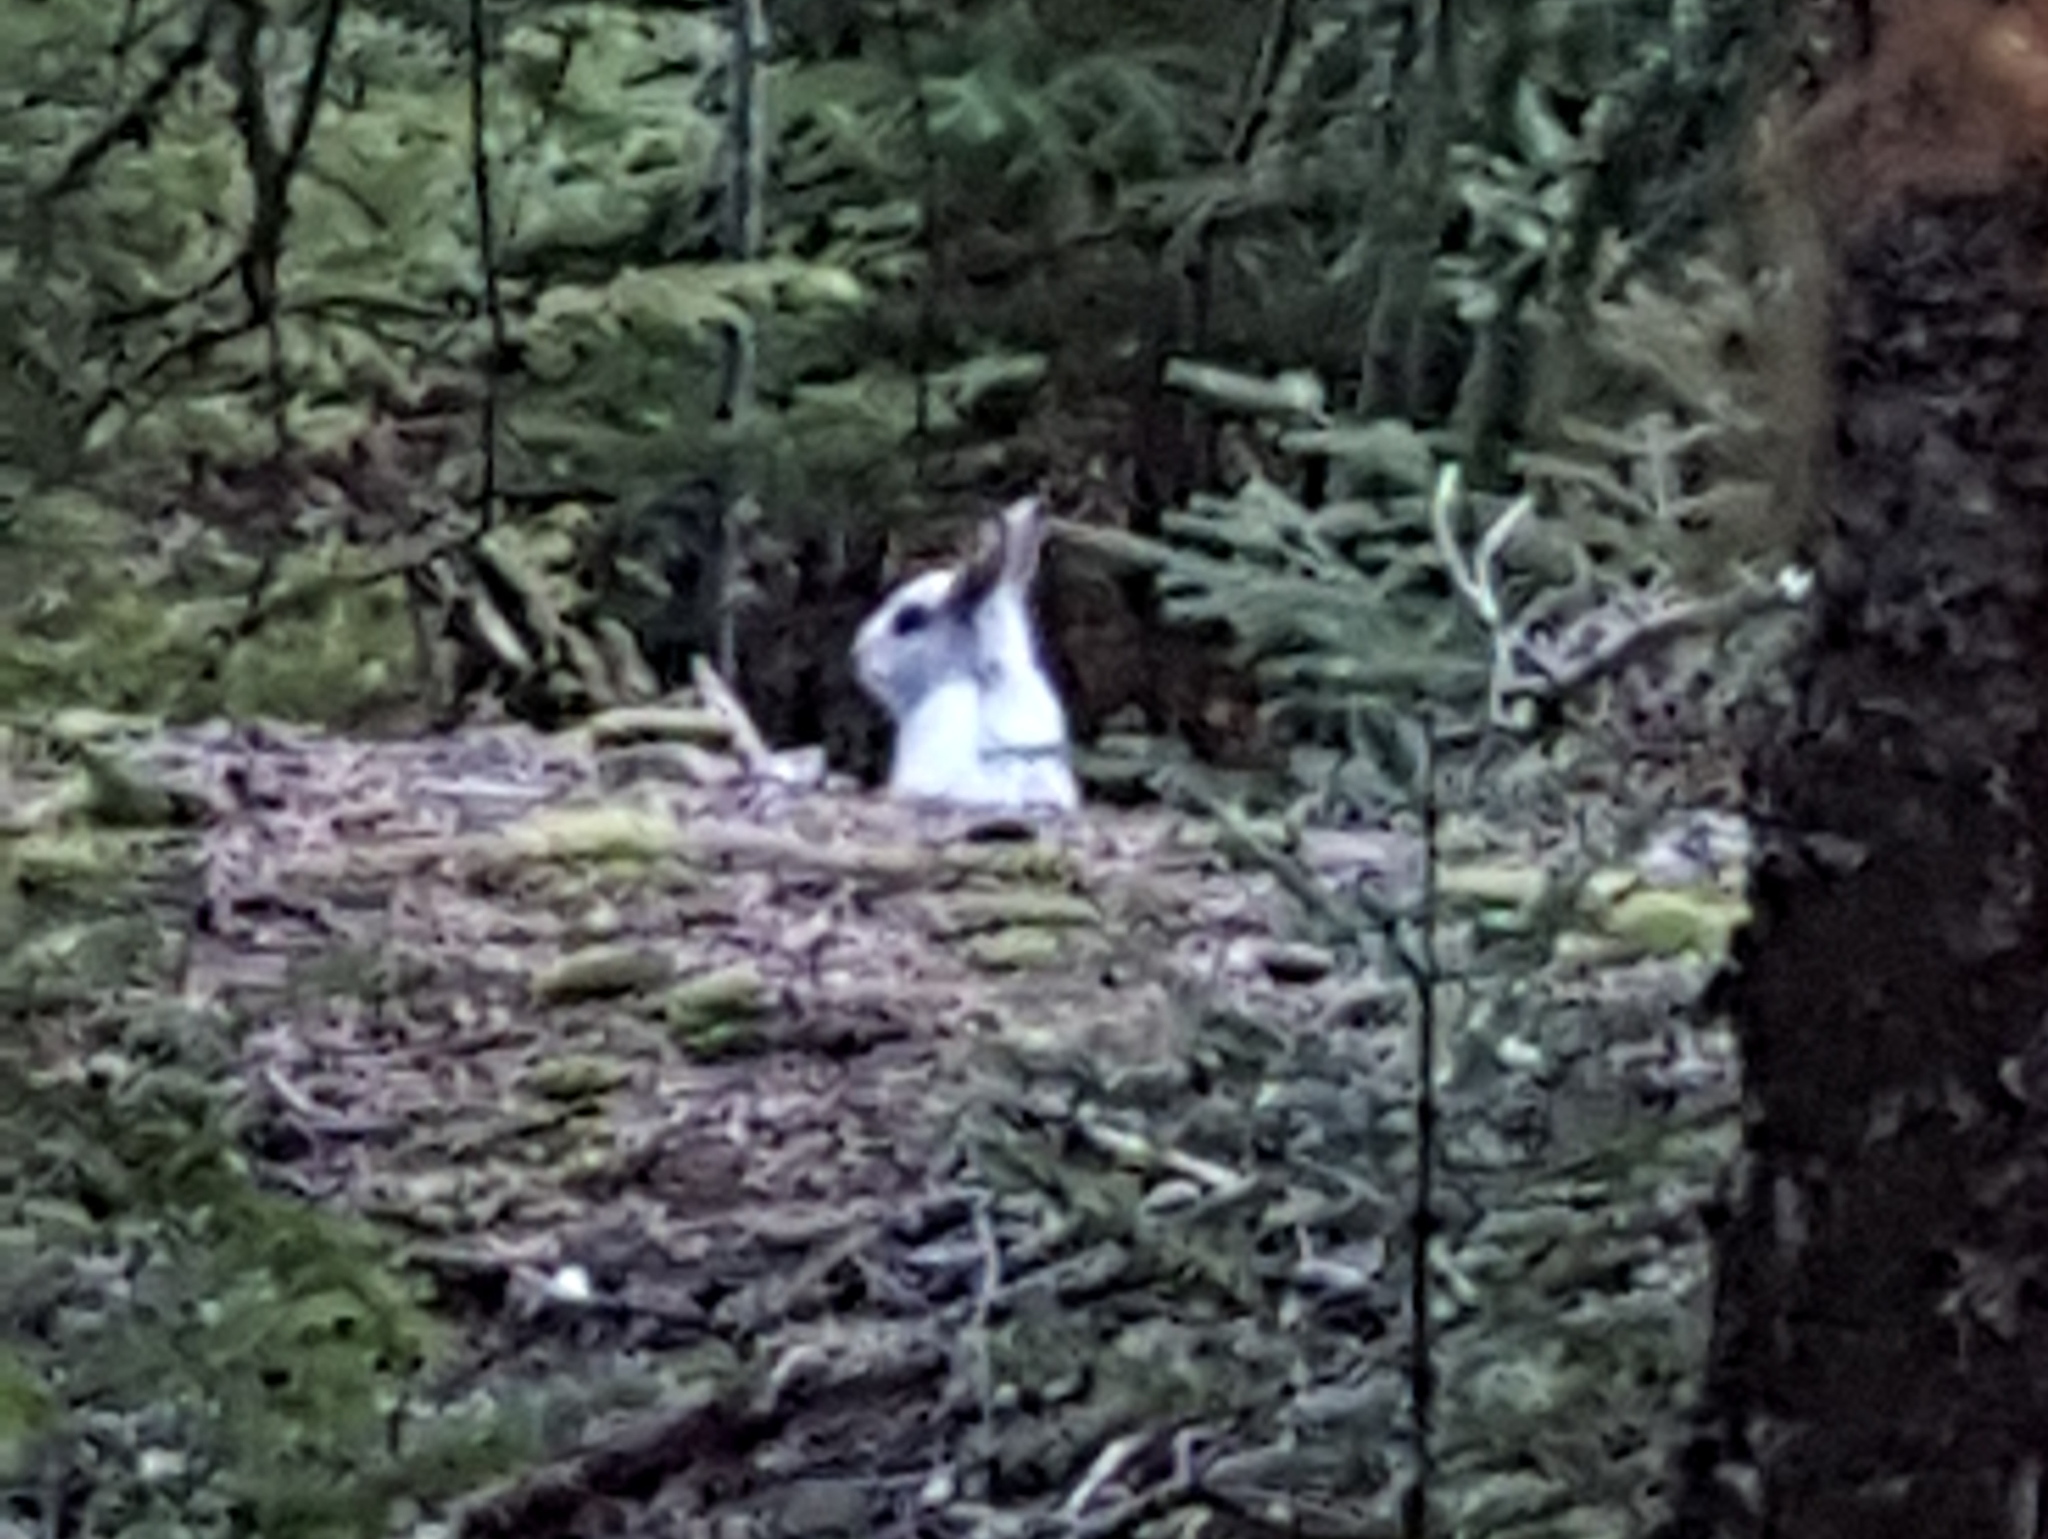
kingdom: Animalia
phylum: Chordata
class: Mammalia
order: Lagomorpha
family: Leporidae
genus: Lepus
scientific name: Lepus americanus
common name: Snowshoe hare
